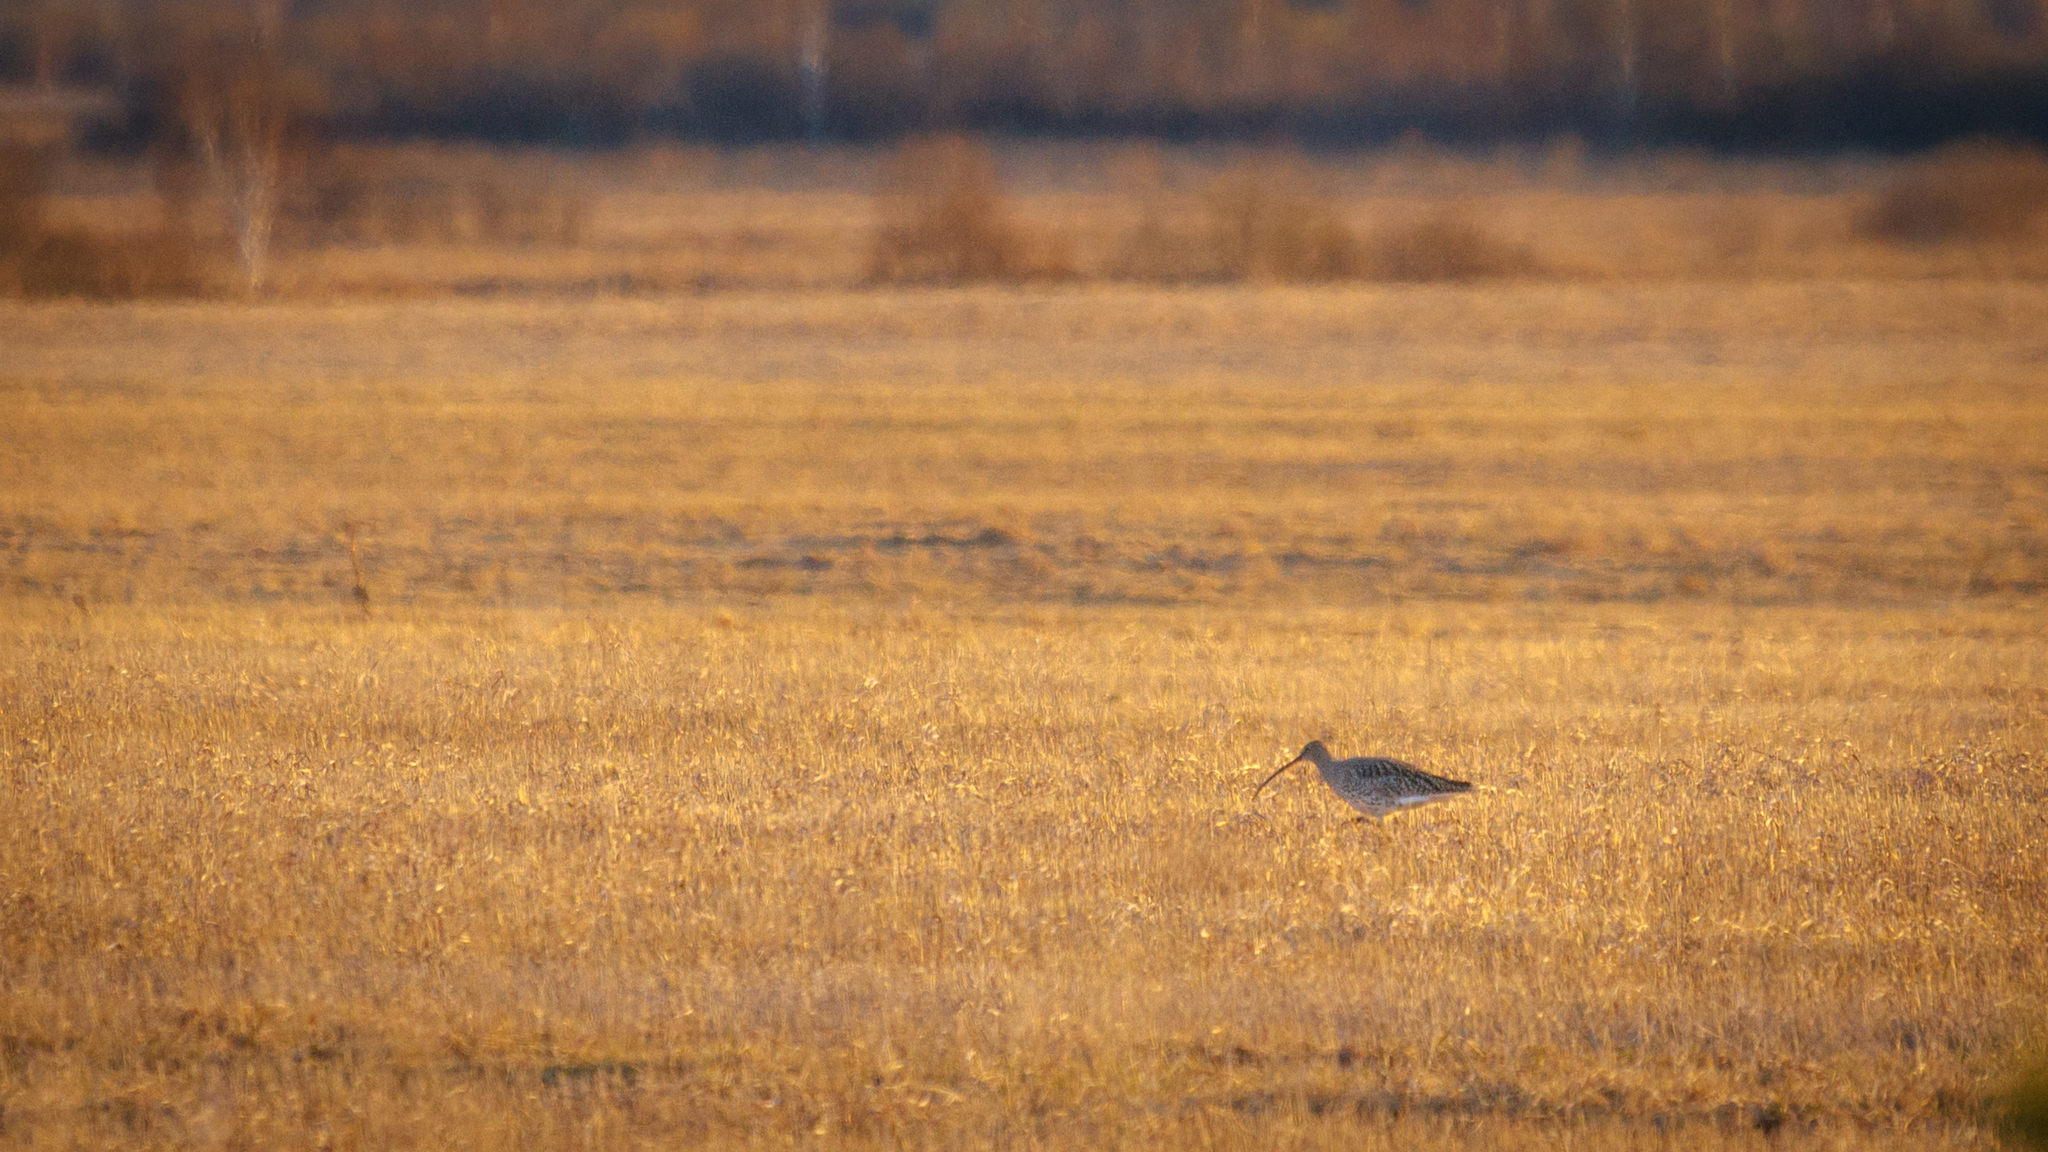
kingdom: Animalia
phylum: Chordata
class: Aves
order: Charadriiformes
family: Scolopacidae
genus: Numenius
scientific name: Numenius arquata
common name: Eurasian curlew
